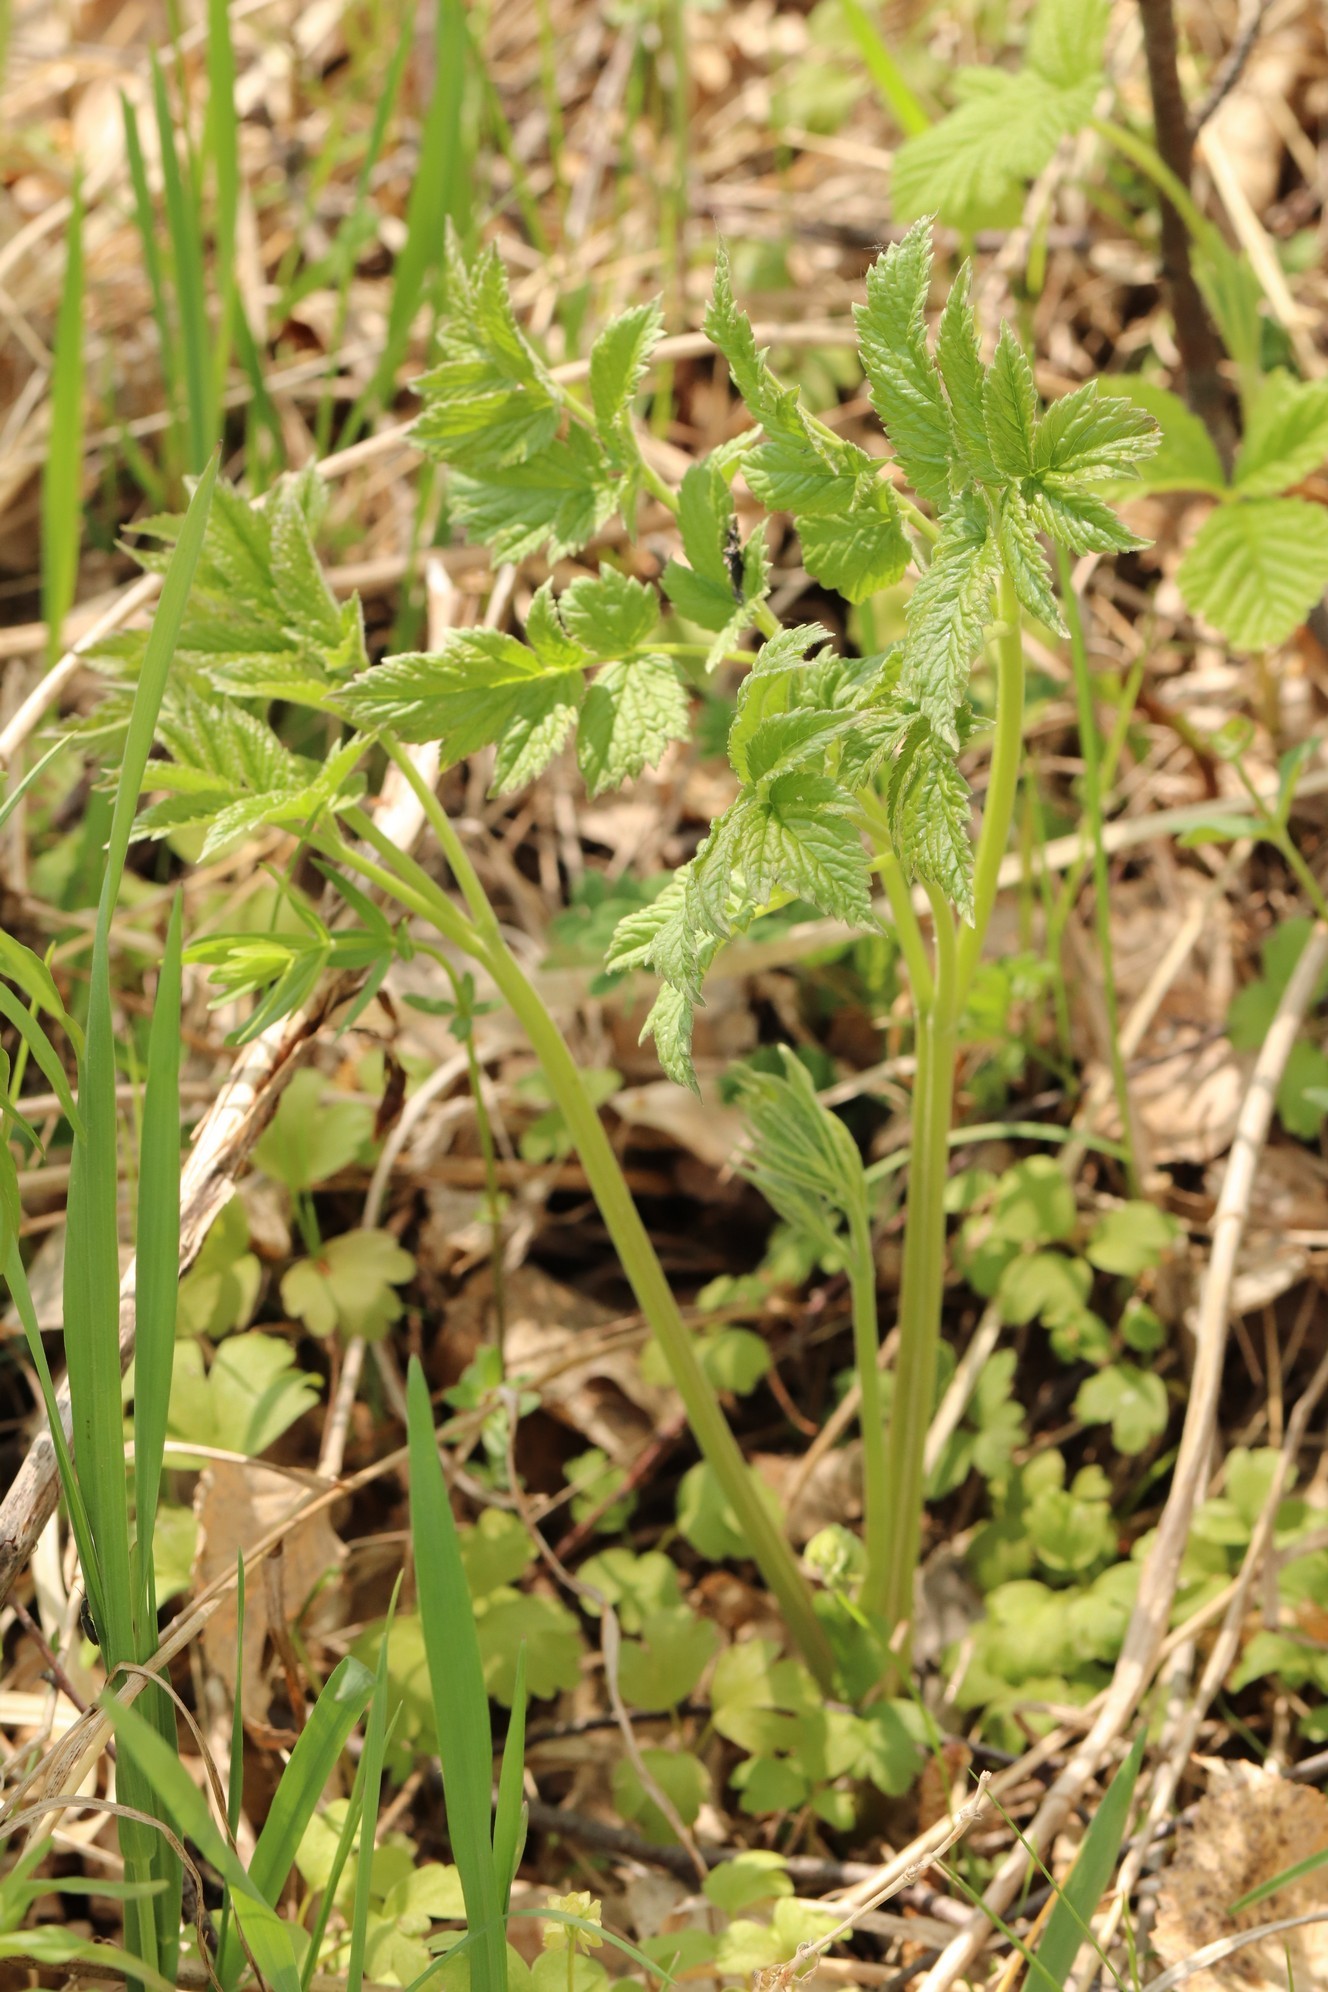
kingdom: Plantae
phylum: Tracheophyta
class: Magnoliopsida
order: Ranunculales
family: Ranunculaceae
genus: Actaea
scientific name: Actaea cimicifuga
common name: Chinese cimicifuga
